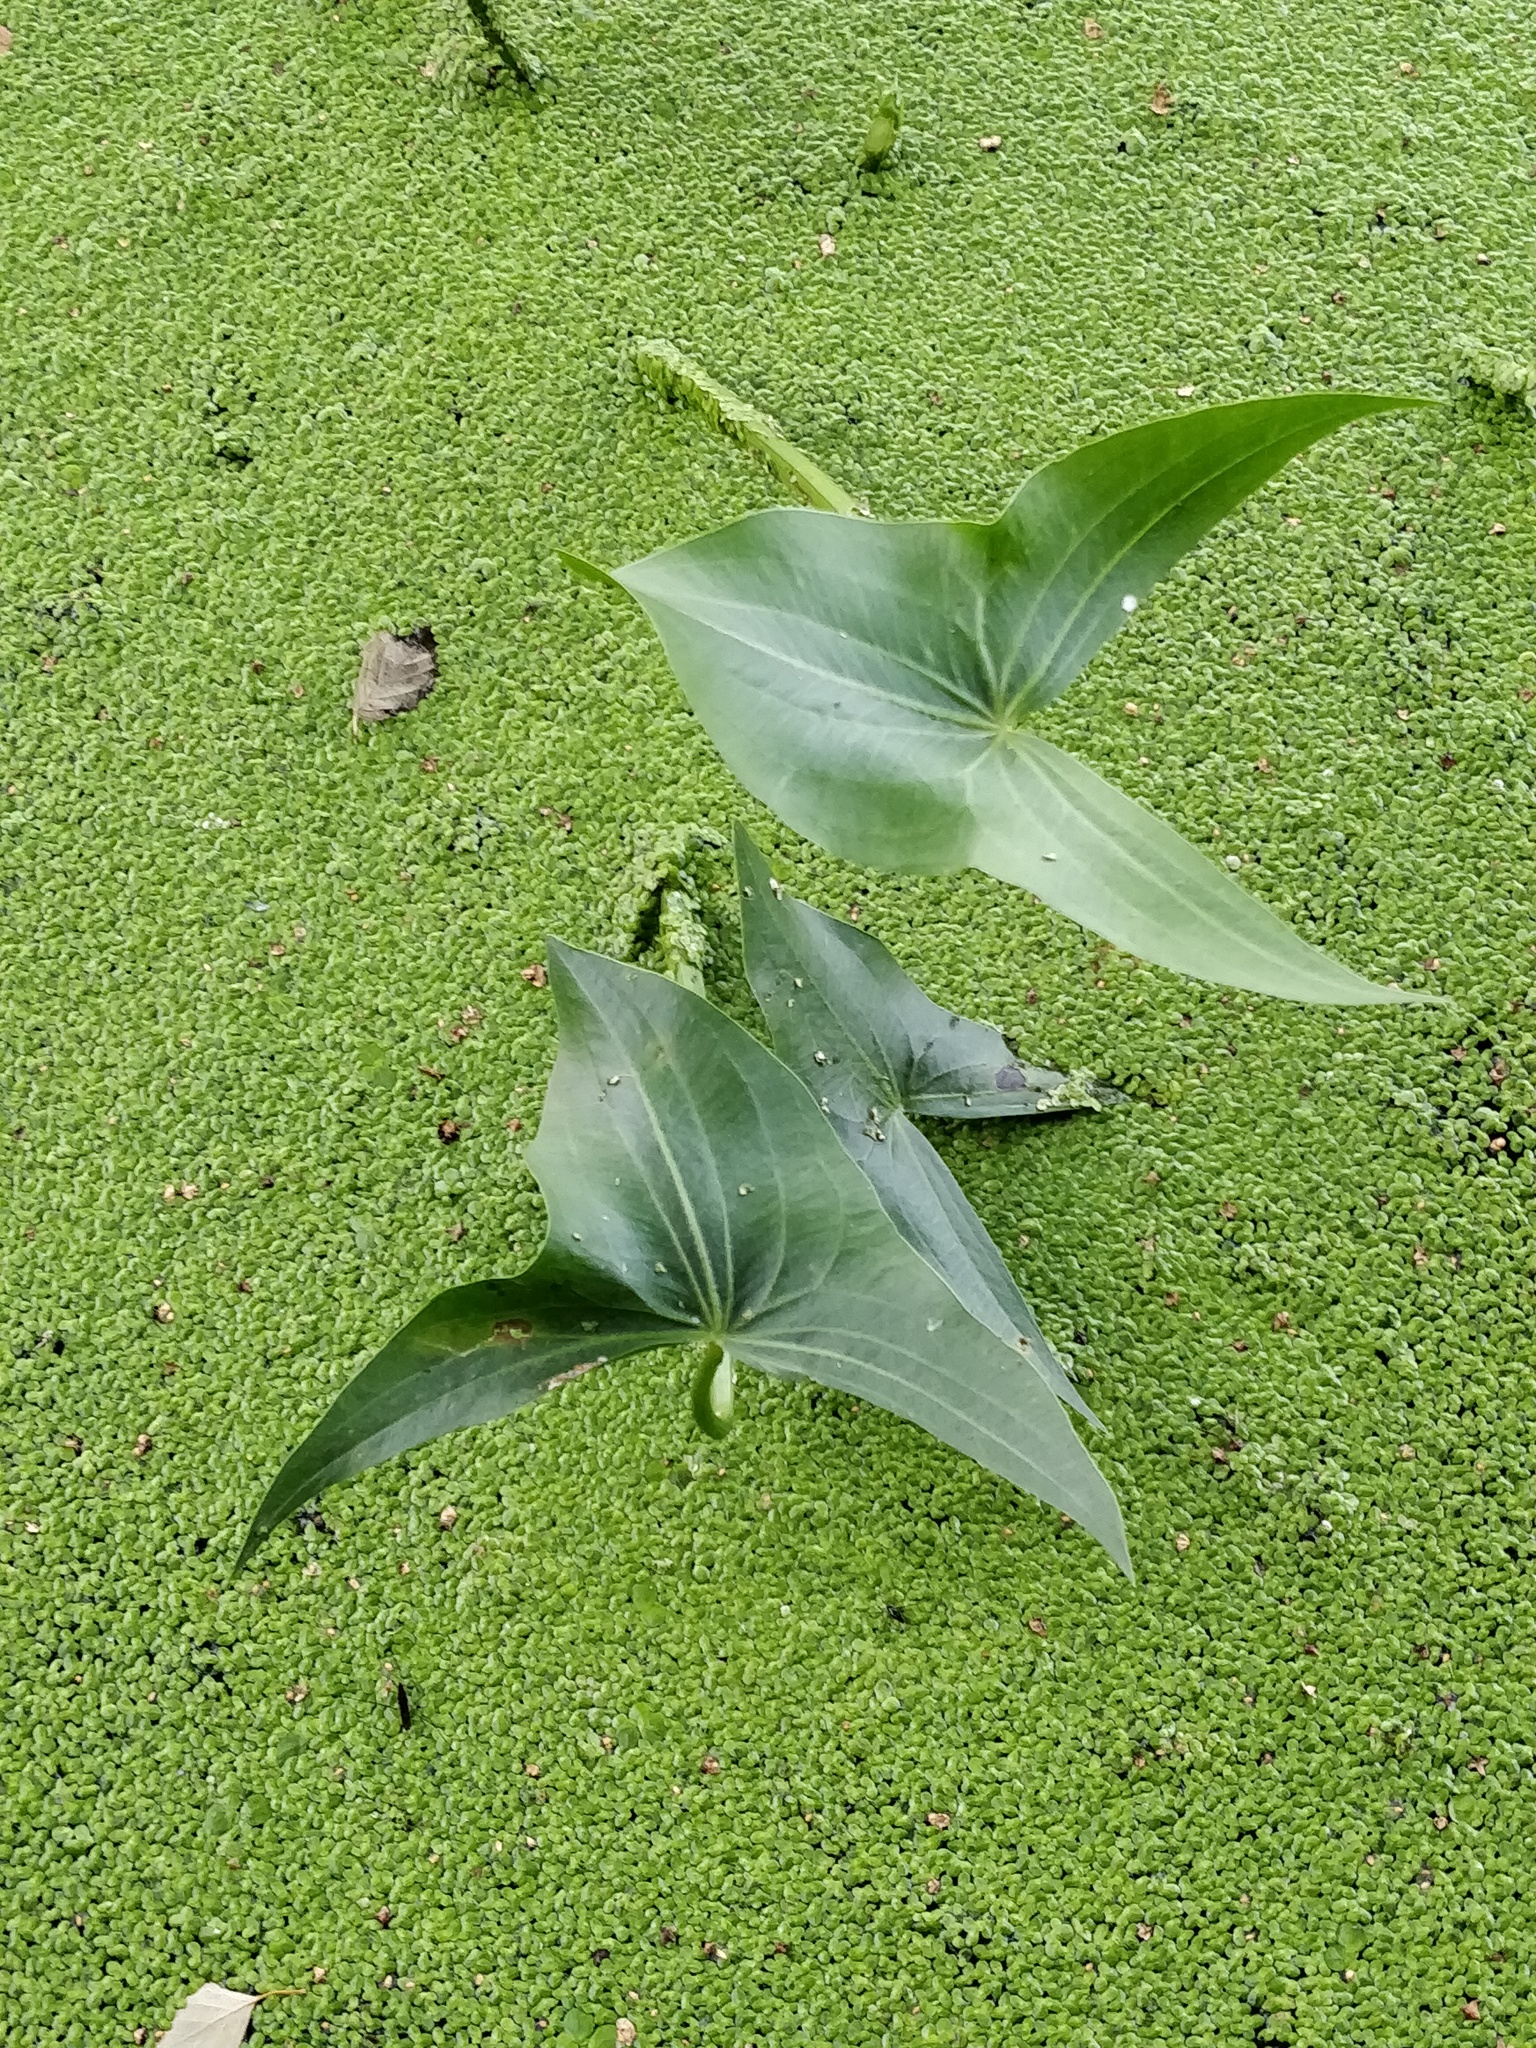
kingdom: Plantae
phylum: Tracheophyta
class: Liliopsida
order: Alismatales
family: Alismataceae
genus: Sagittaria
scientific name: Sagittaria sagittifolia
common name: Arrowhead
